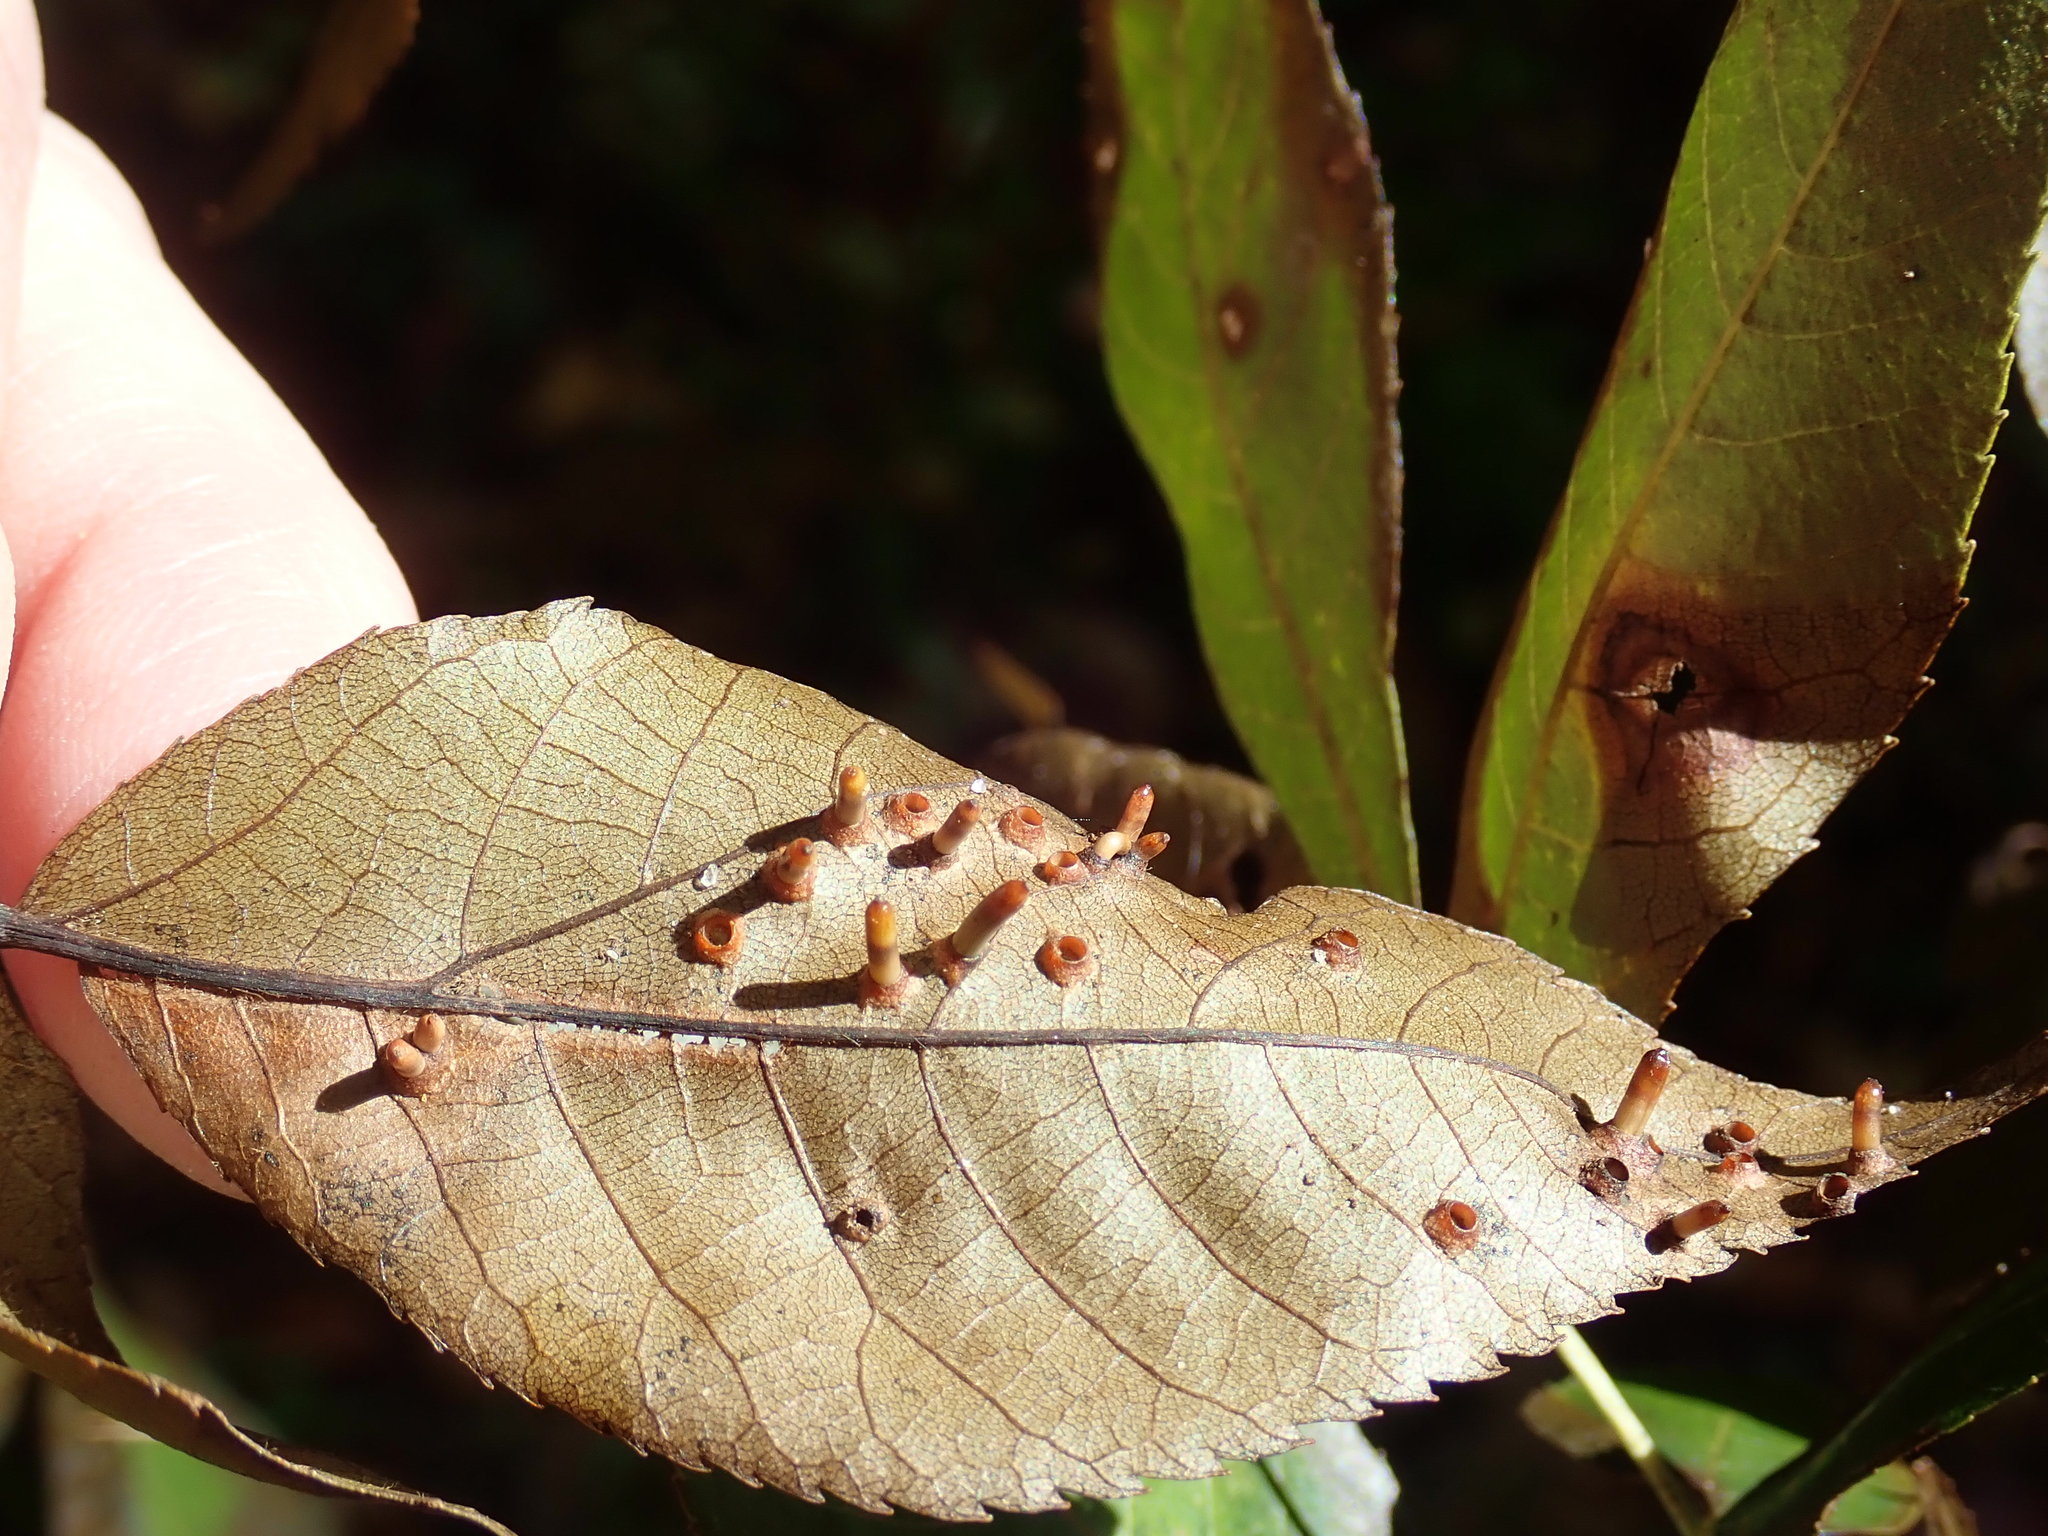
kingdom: Animalia
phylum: Arthropoda
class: Insecta
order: Diptera
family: Cecidomyiidae
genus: Caryomyia
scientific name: Caryomyia tubicola
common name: Hickory bullet gall midge
